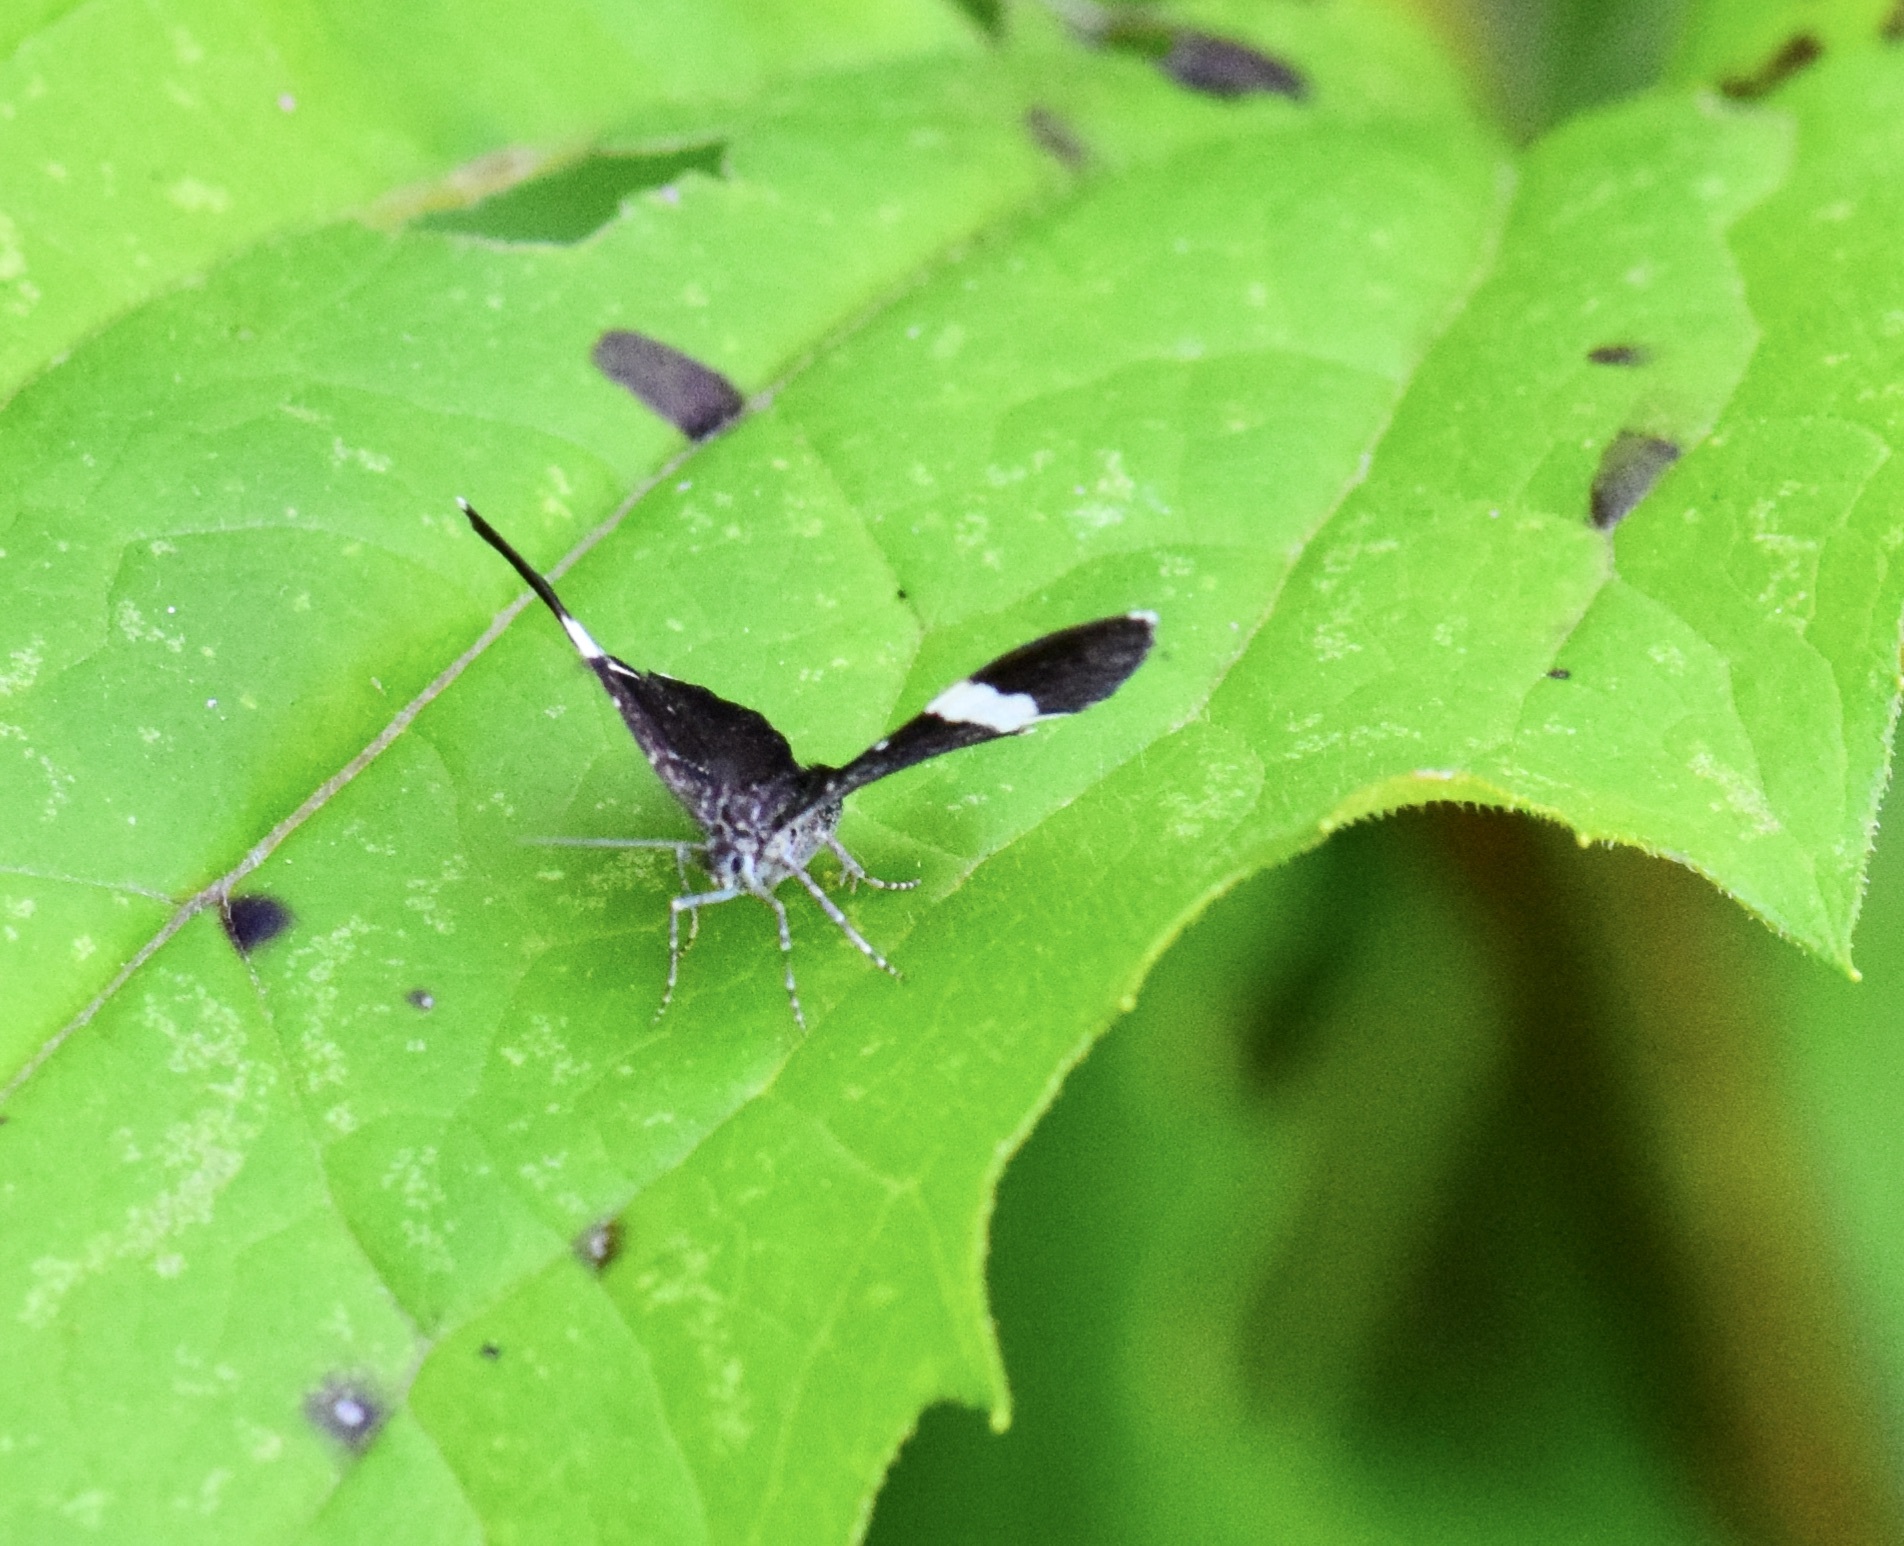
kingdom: Animalia
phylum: Arthropoda
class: Insecta
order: Lepidoptera
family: Geometridae
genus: Trichodezia
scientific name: Trichodezia albovittata
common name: White striped black
